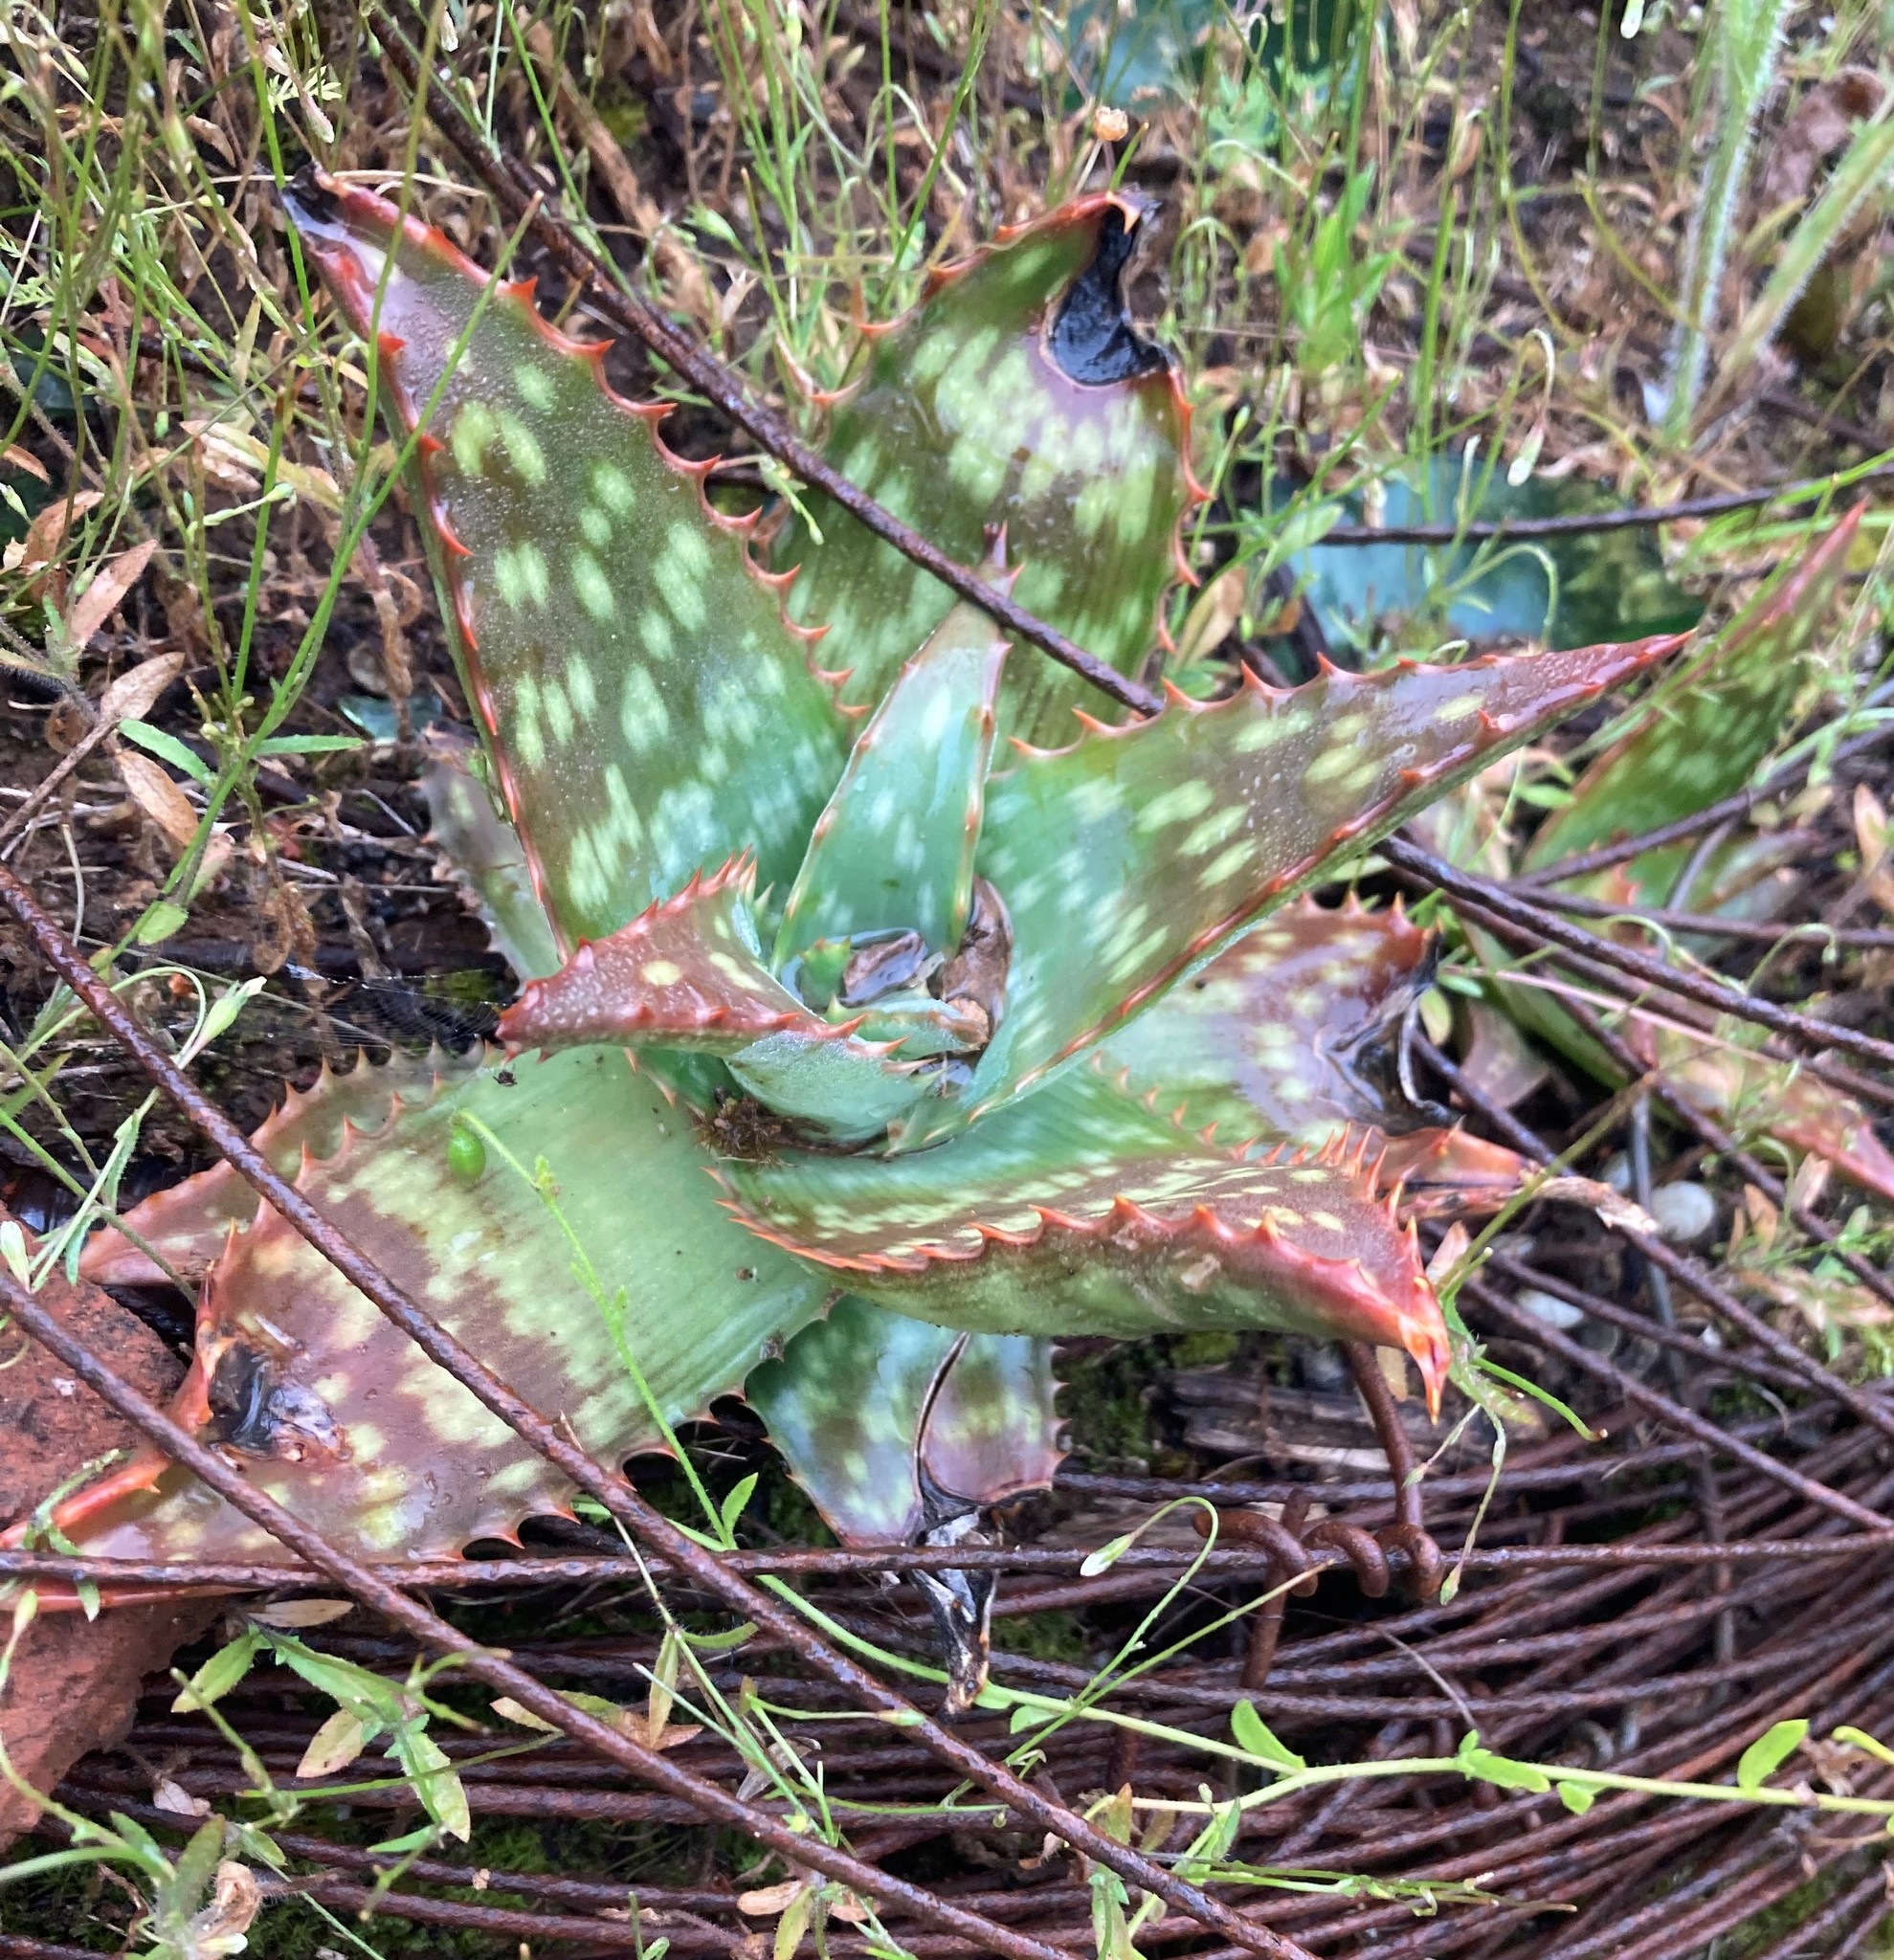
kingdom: Plantae
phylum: Tracheophyta
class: Liliopsida
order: Asparagales
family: Asphodelaceae
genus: Aloe
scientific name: Aloe maculata
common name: Broadleaf aloe
